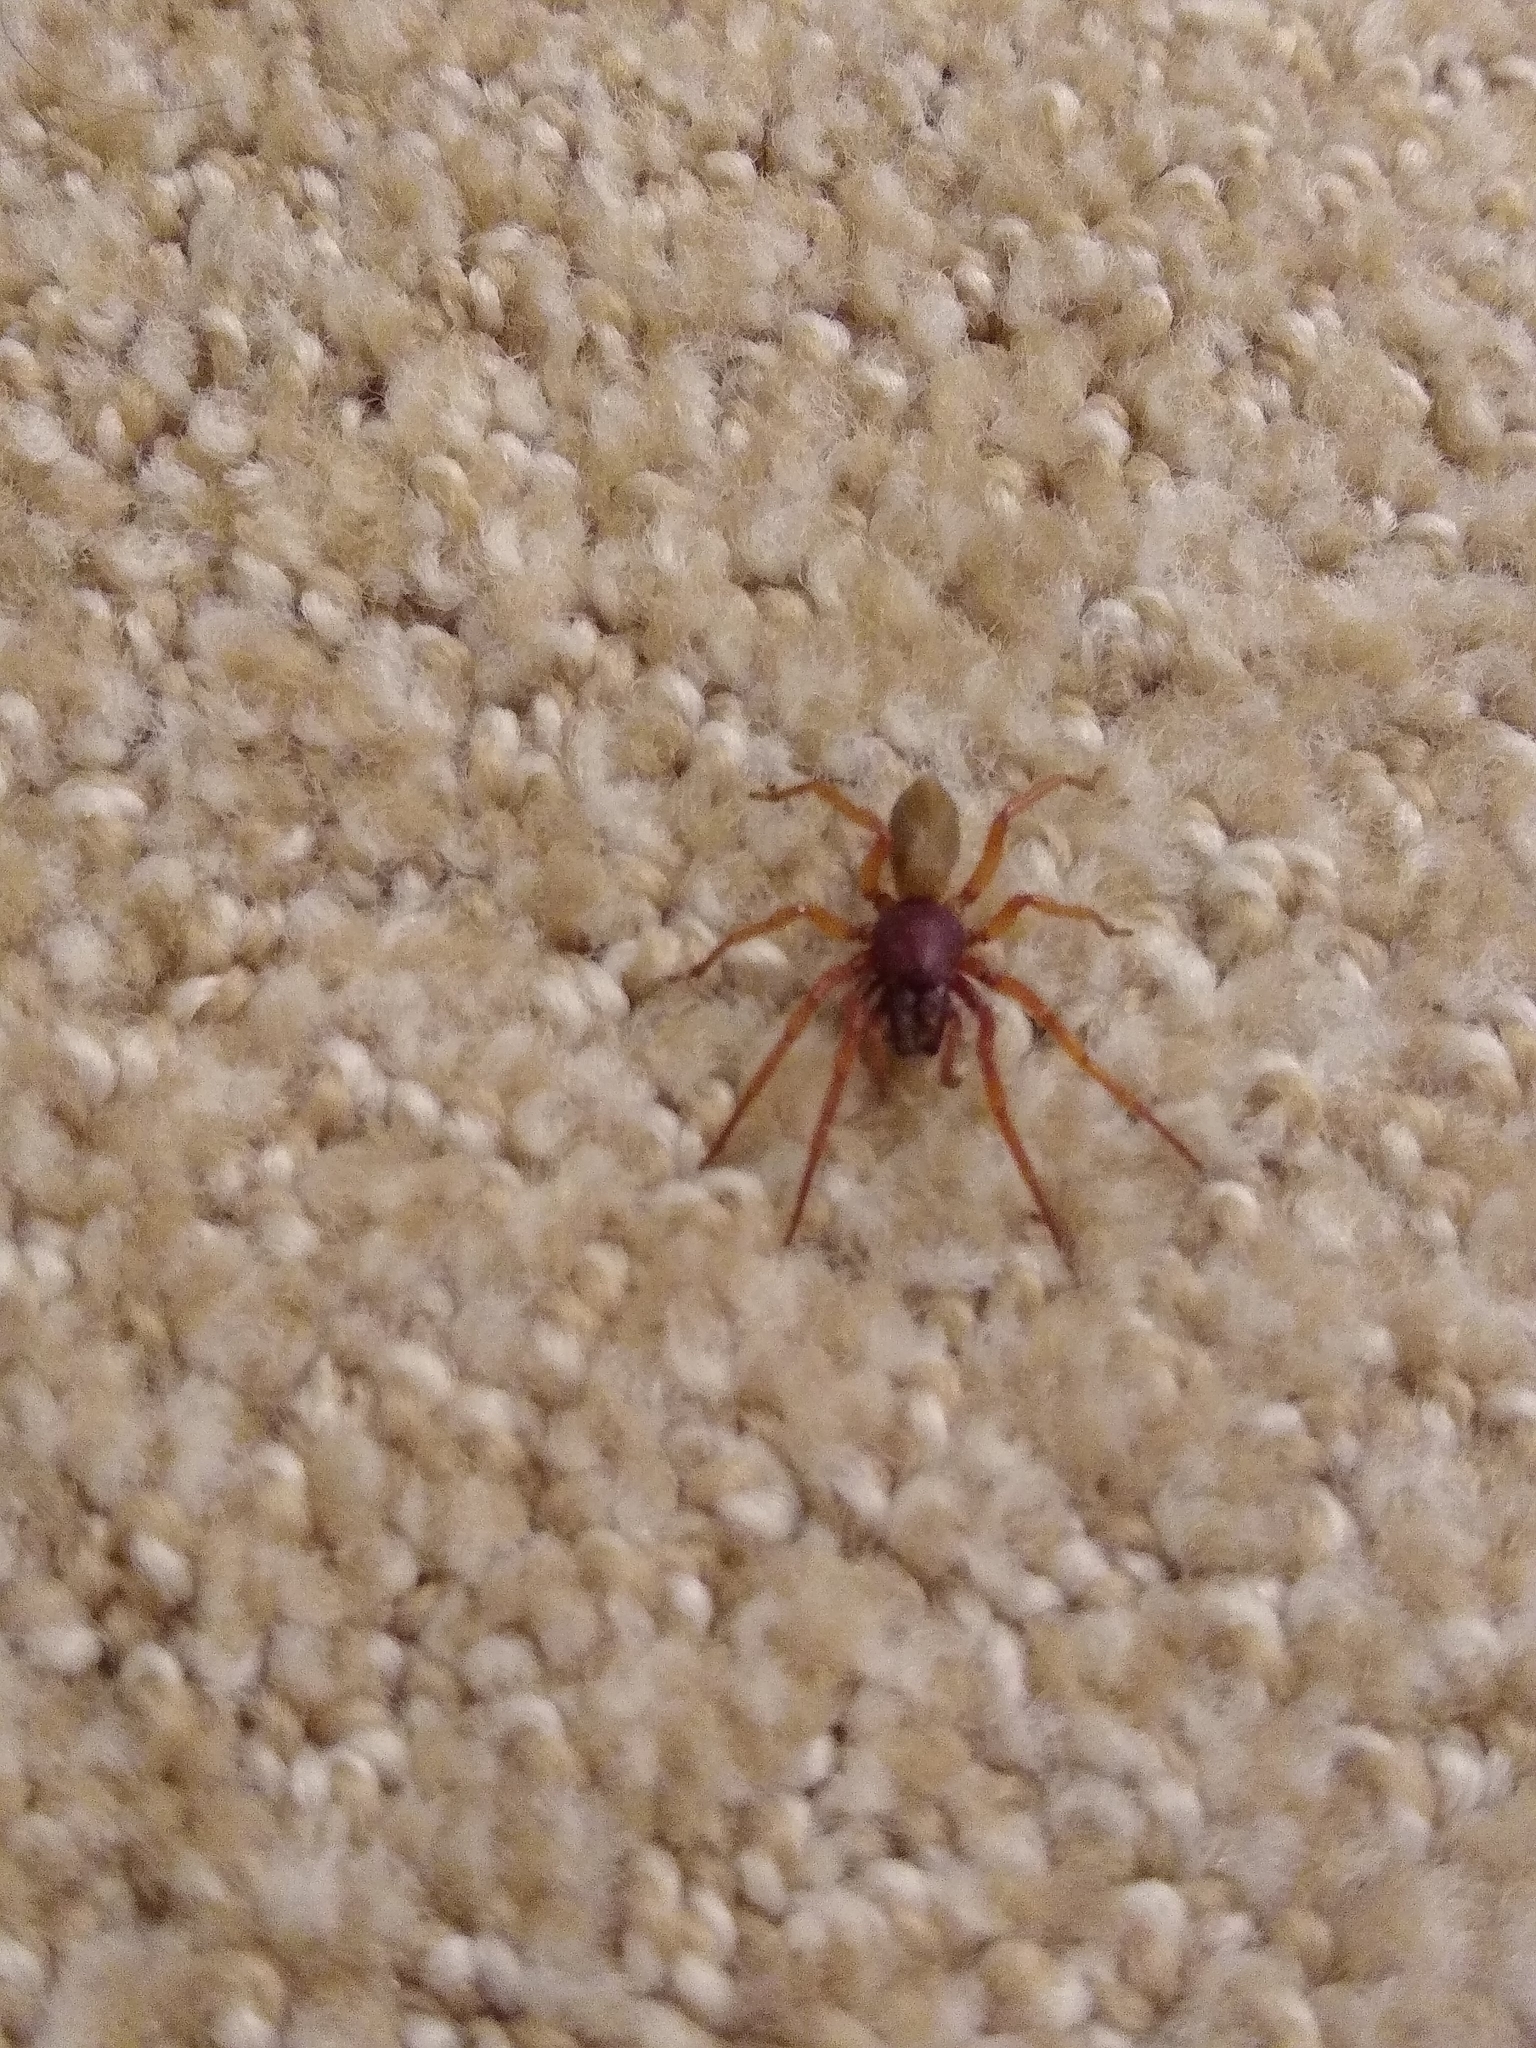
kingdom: Animalia
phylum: Arthropoda
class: Arachnida
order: Araneae
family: Dysderidae
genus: Dysdera
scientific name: Dysdera crocata
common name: Woodlouse spider
